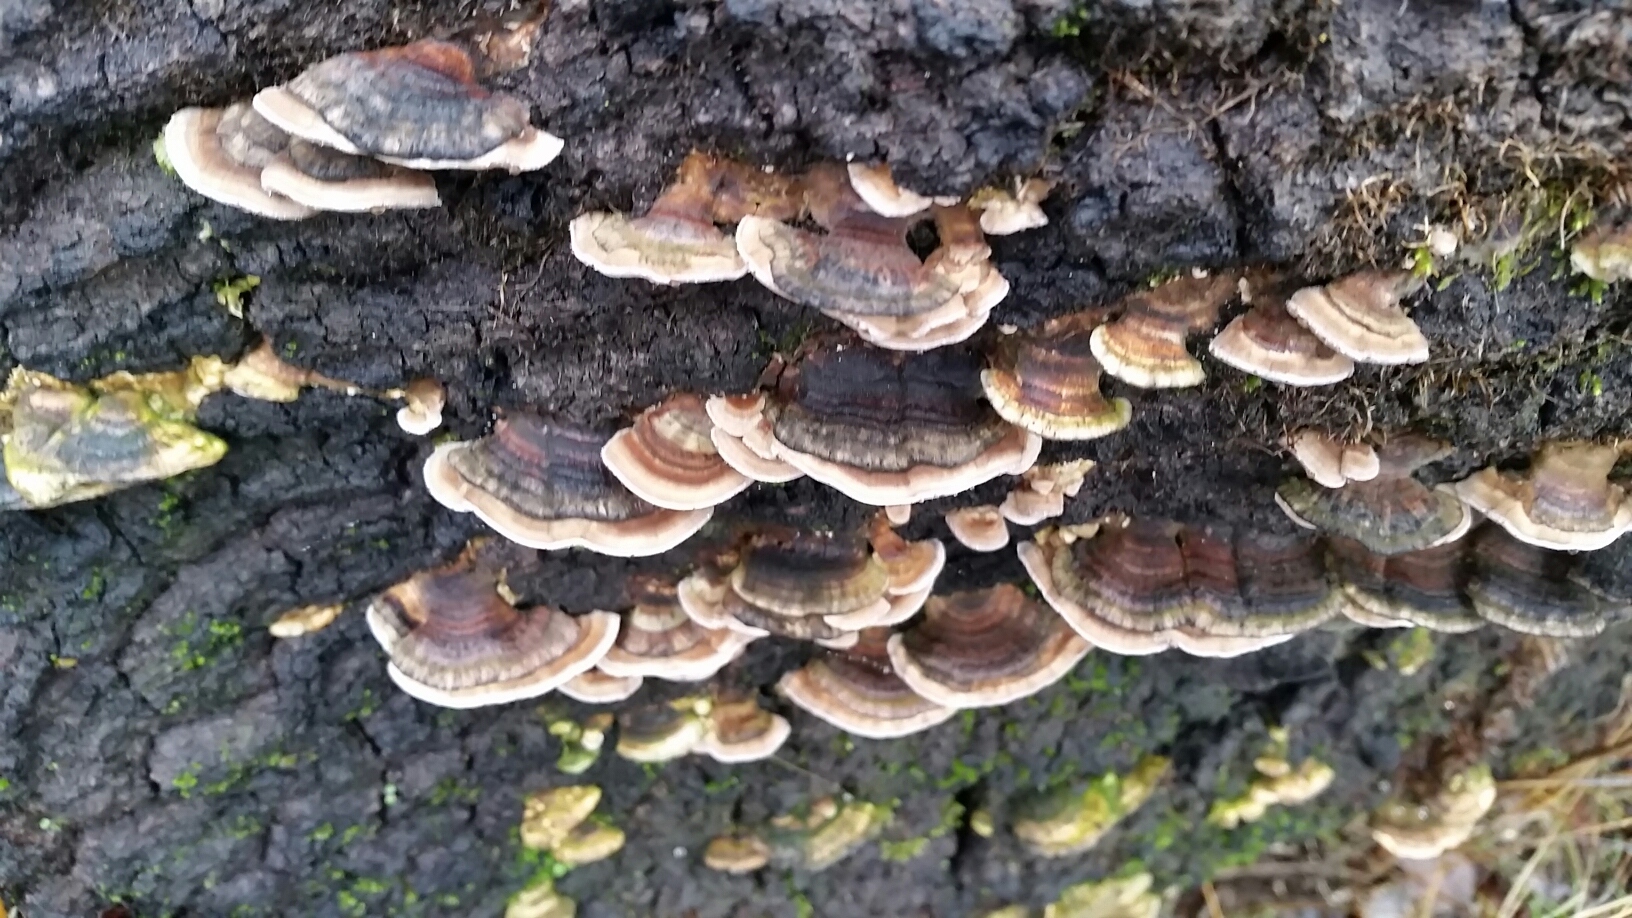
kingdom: Fungi
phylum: Basidiomycota
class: Agaricomycetes
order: Polyporales
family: Polyporaceae
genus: Trametes
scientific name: Trametes versicolor
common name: Turkeytail
